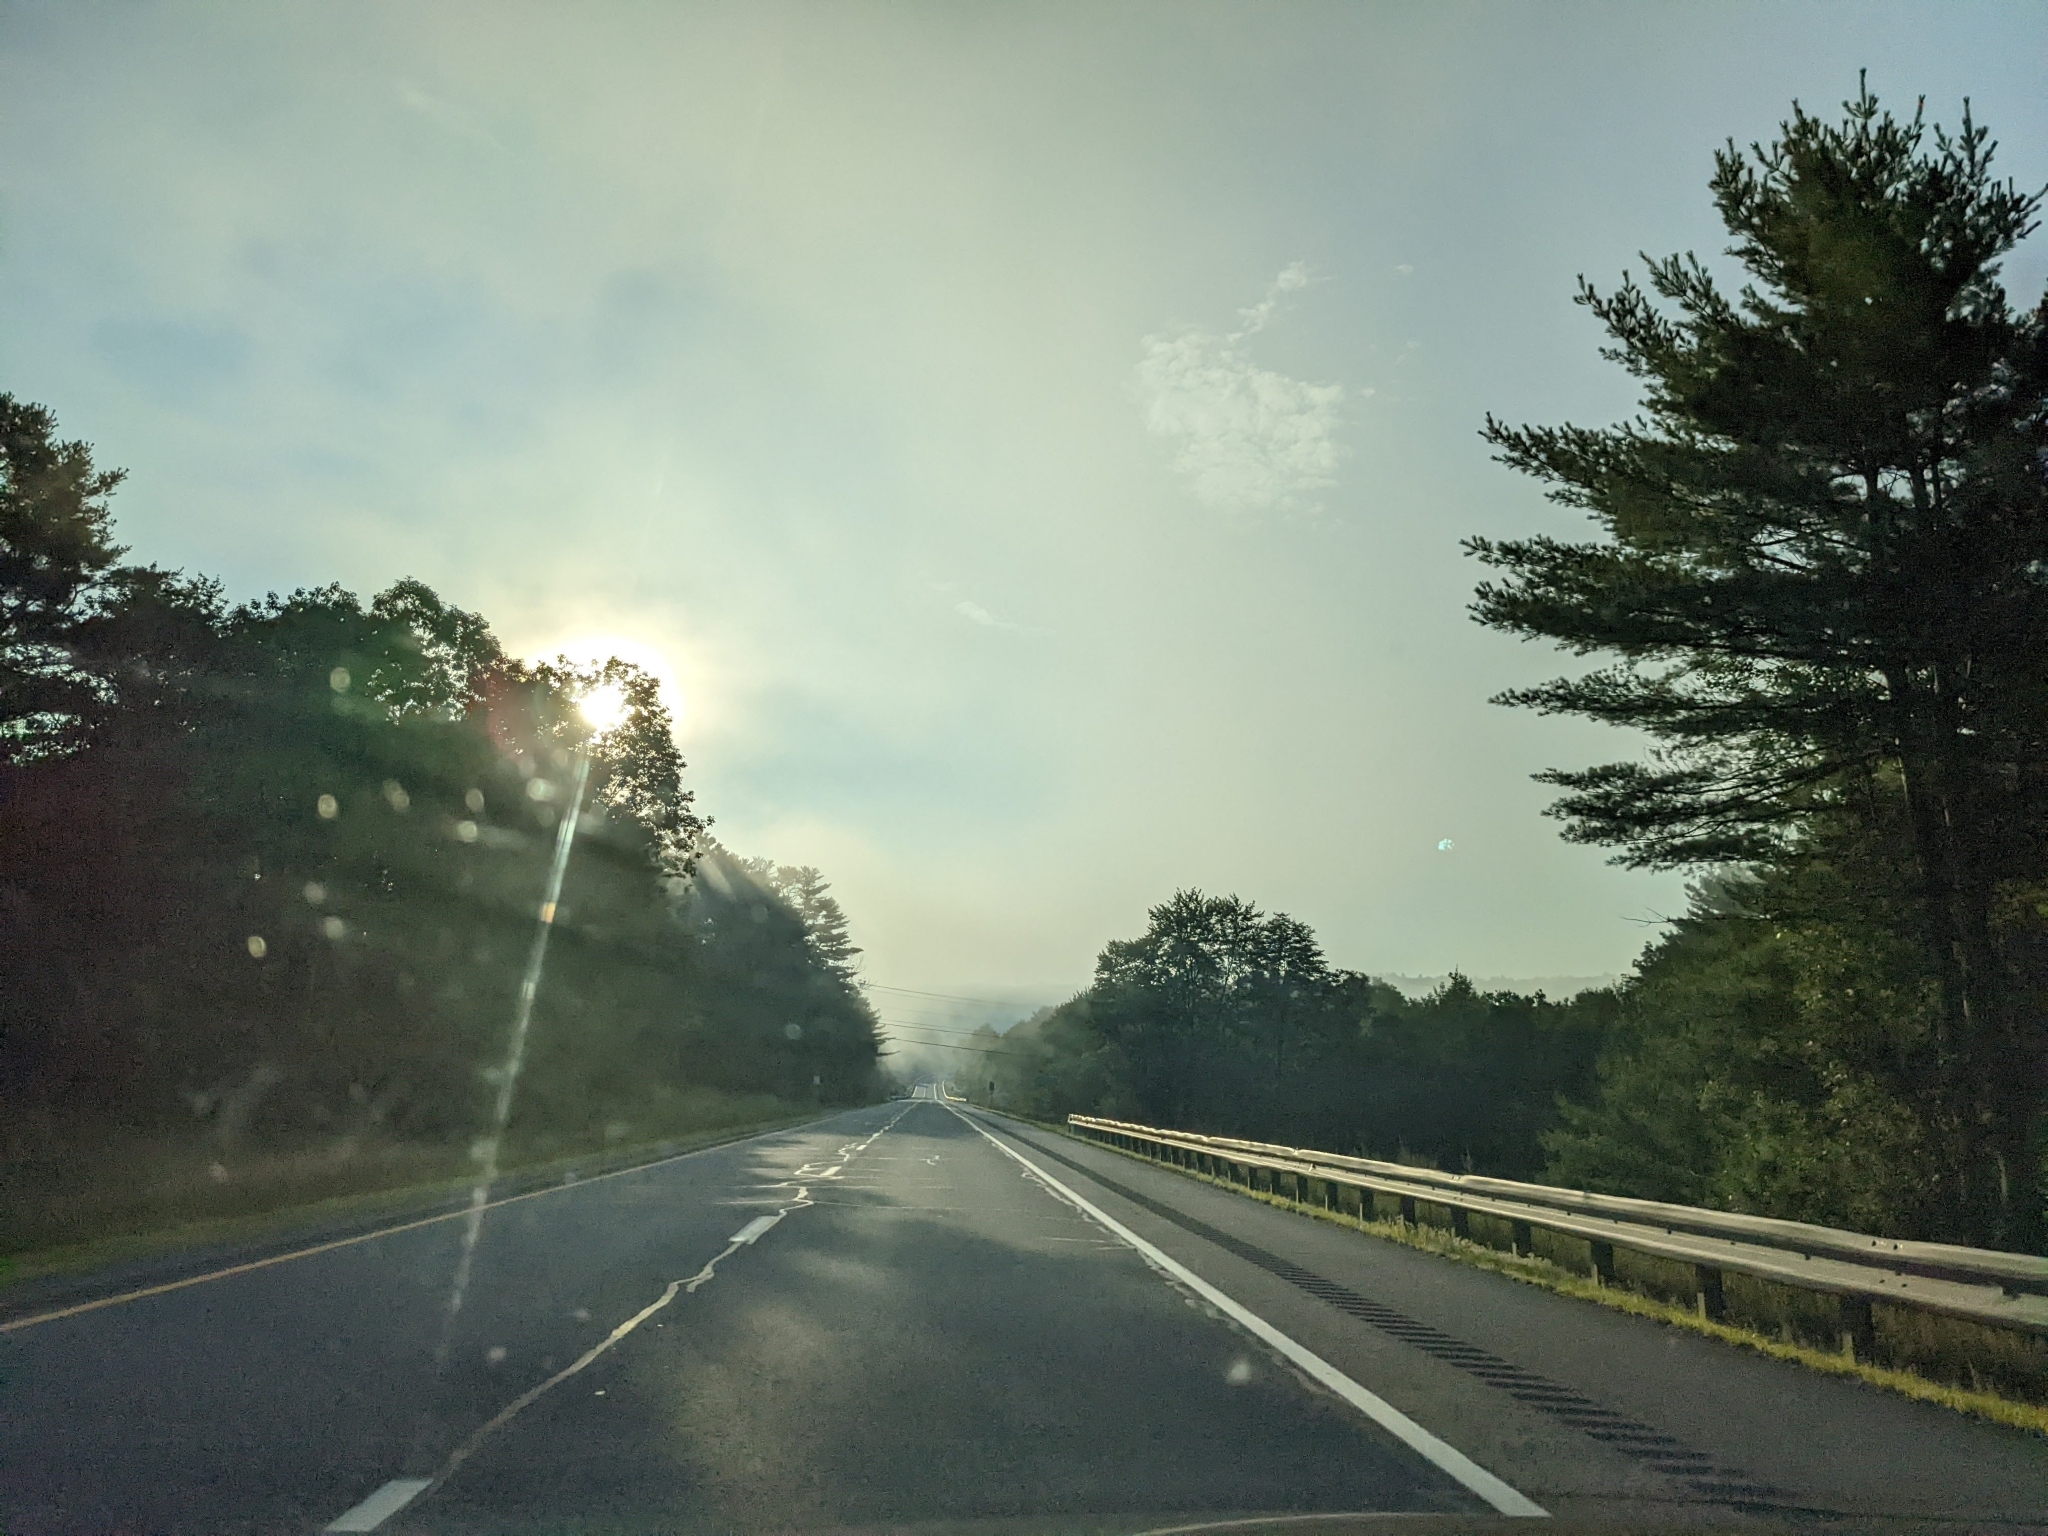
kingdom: Plantae
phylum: Tracheophyta
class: Pinopsida
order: Pinales
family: Pinaceae
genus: Pinus
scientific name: Pinus strobus
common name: Weymouth pine
